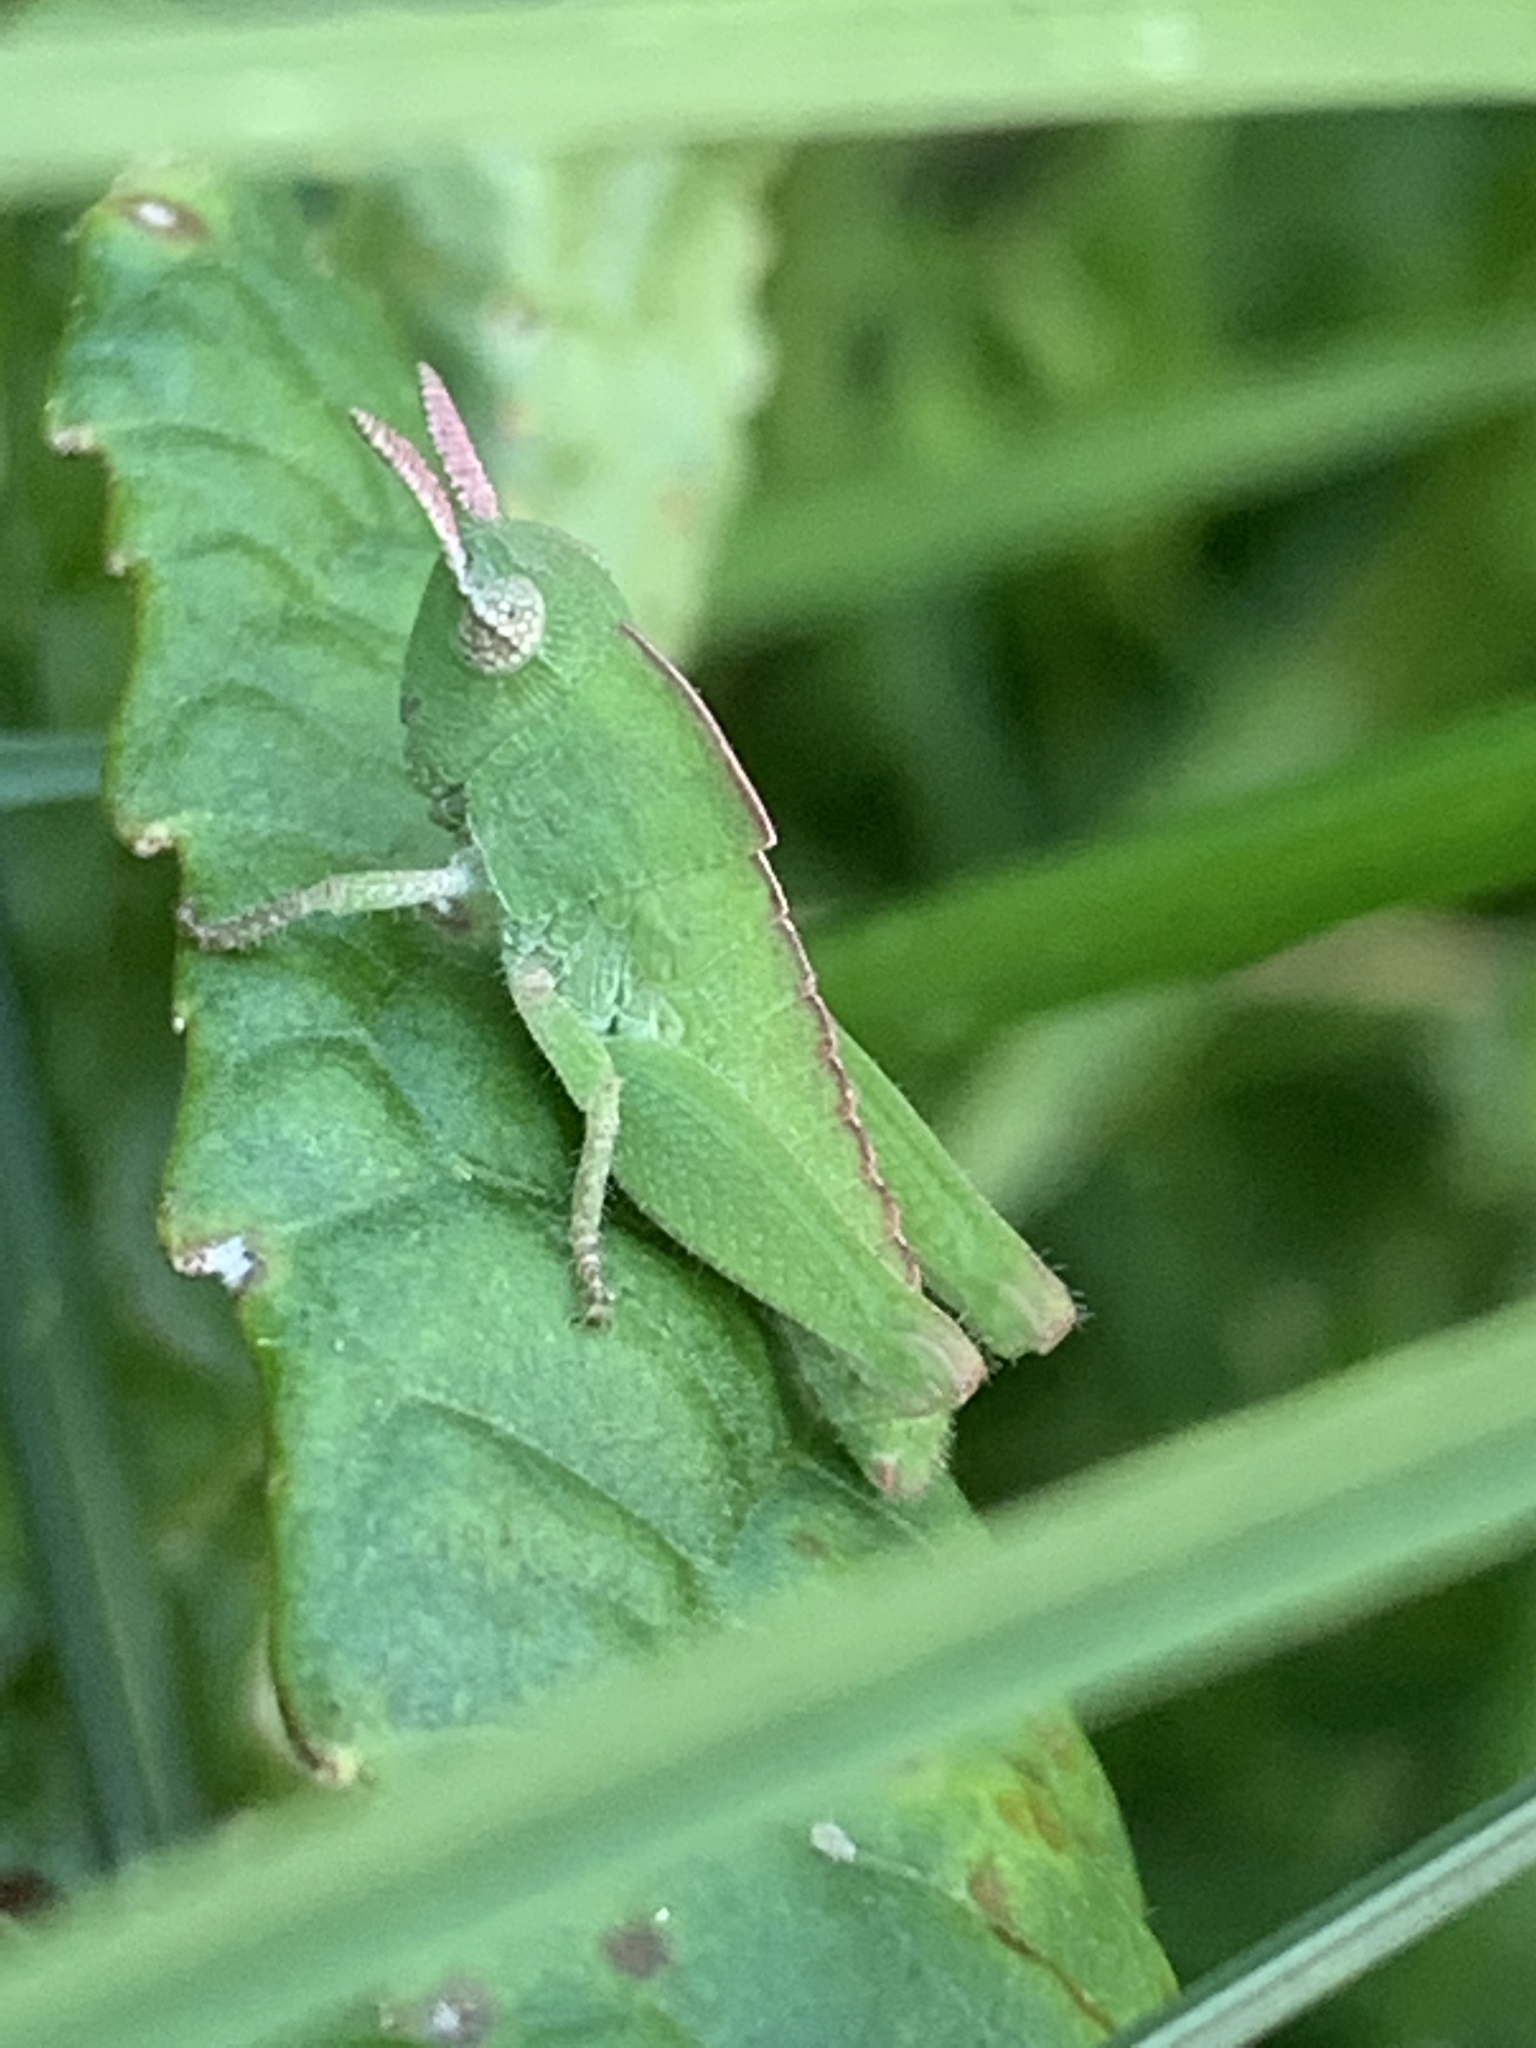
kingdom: Animalia
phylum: Arthropoda
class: Insecta
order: Orthoptera
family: Acrididae
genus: Chortophaga
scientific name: Chortophaga viridifasciata
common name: Green-striped grasshopper
